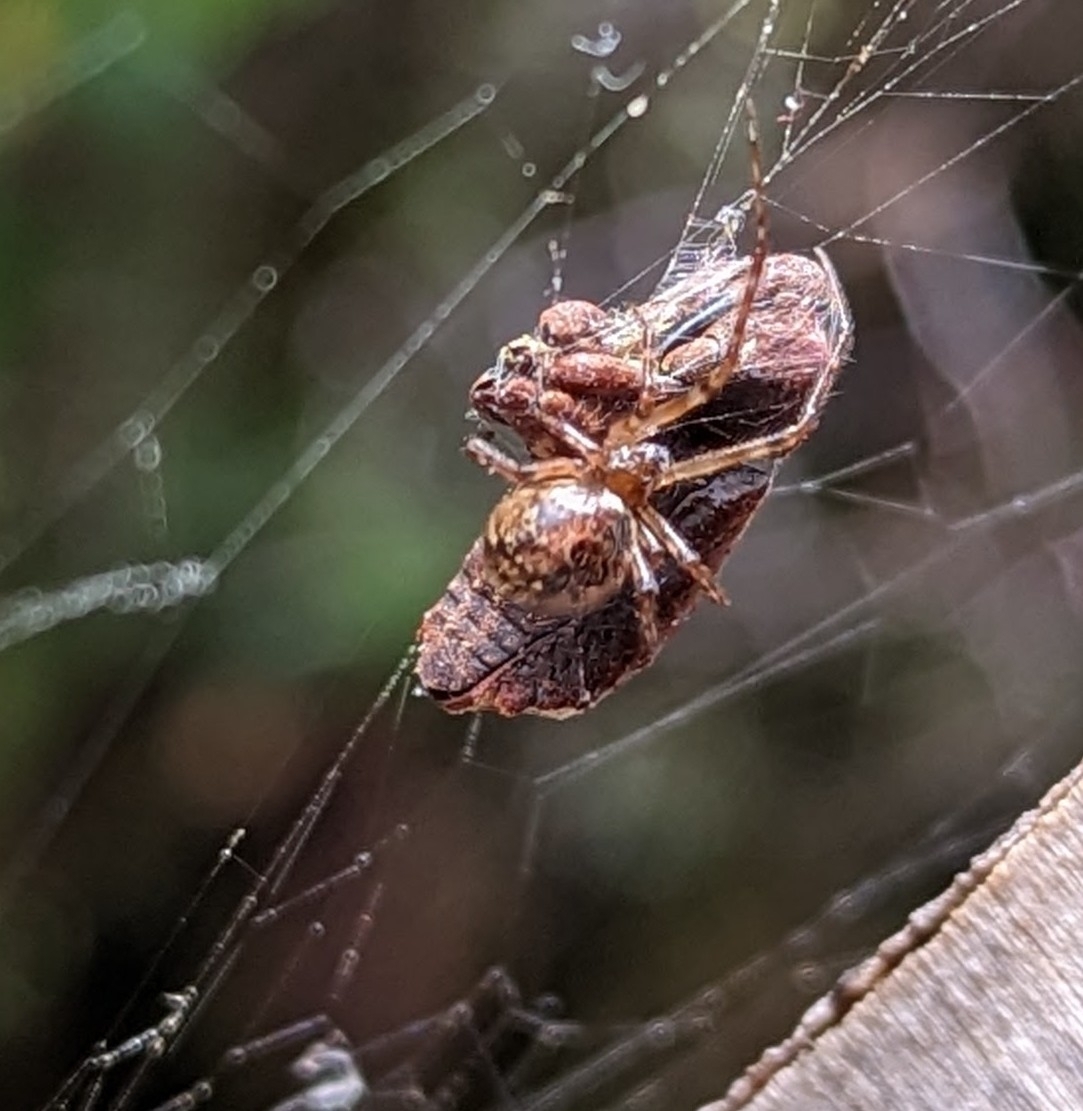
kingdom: Animalia
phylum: Arthropoda
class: Arachnida
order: Araneae
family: Theridiidae
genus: Cryptachaea
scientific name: Cryptachaea veruculata
